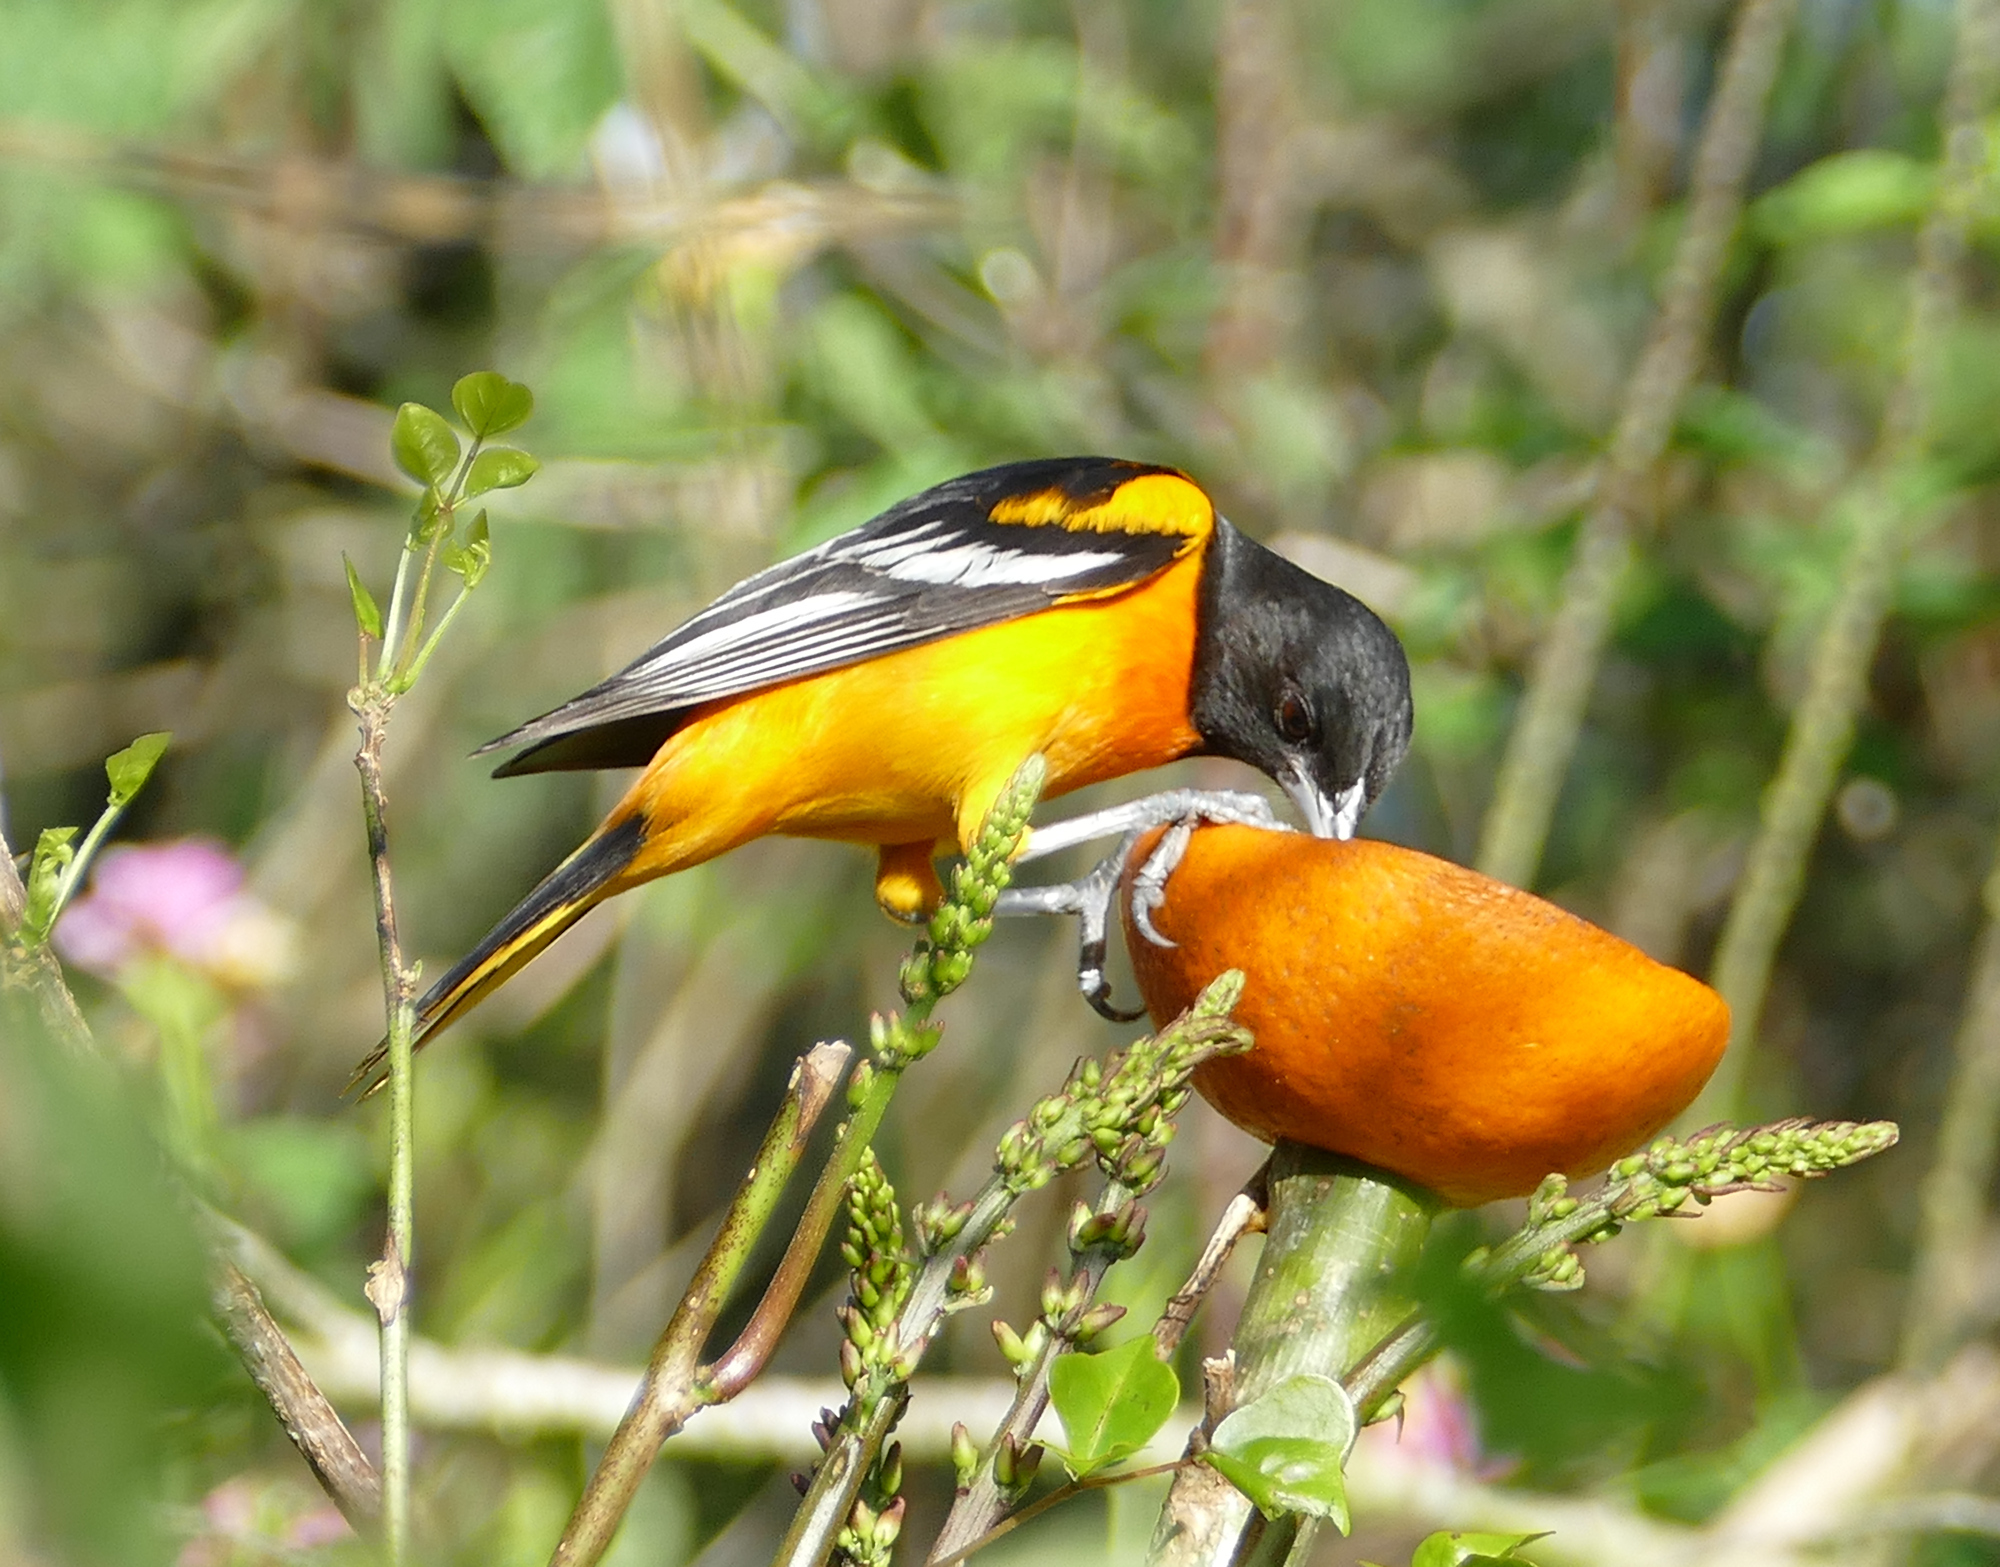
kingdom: Animalia
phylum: Chordata
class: Aves
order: Passeriformes
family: Icteridae
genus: Icterus
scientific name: Icterus galbula
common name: Baltimore oriole
